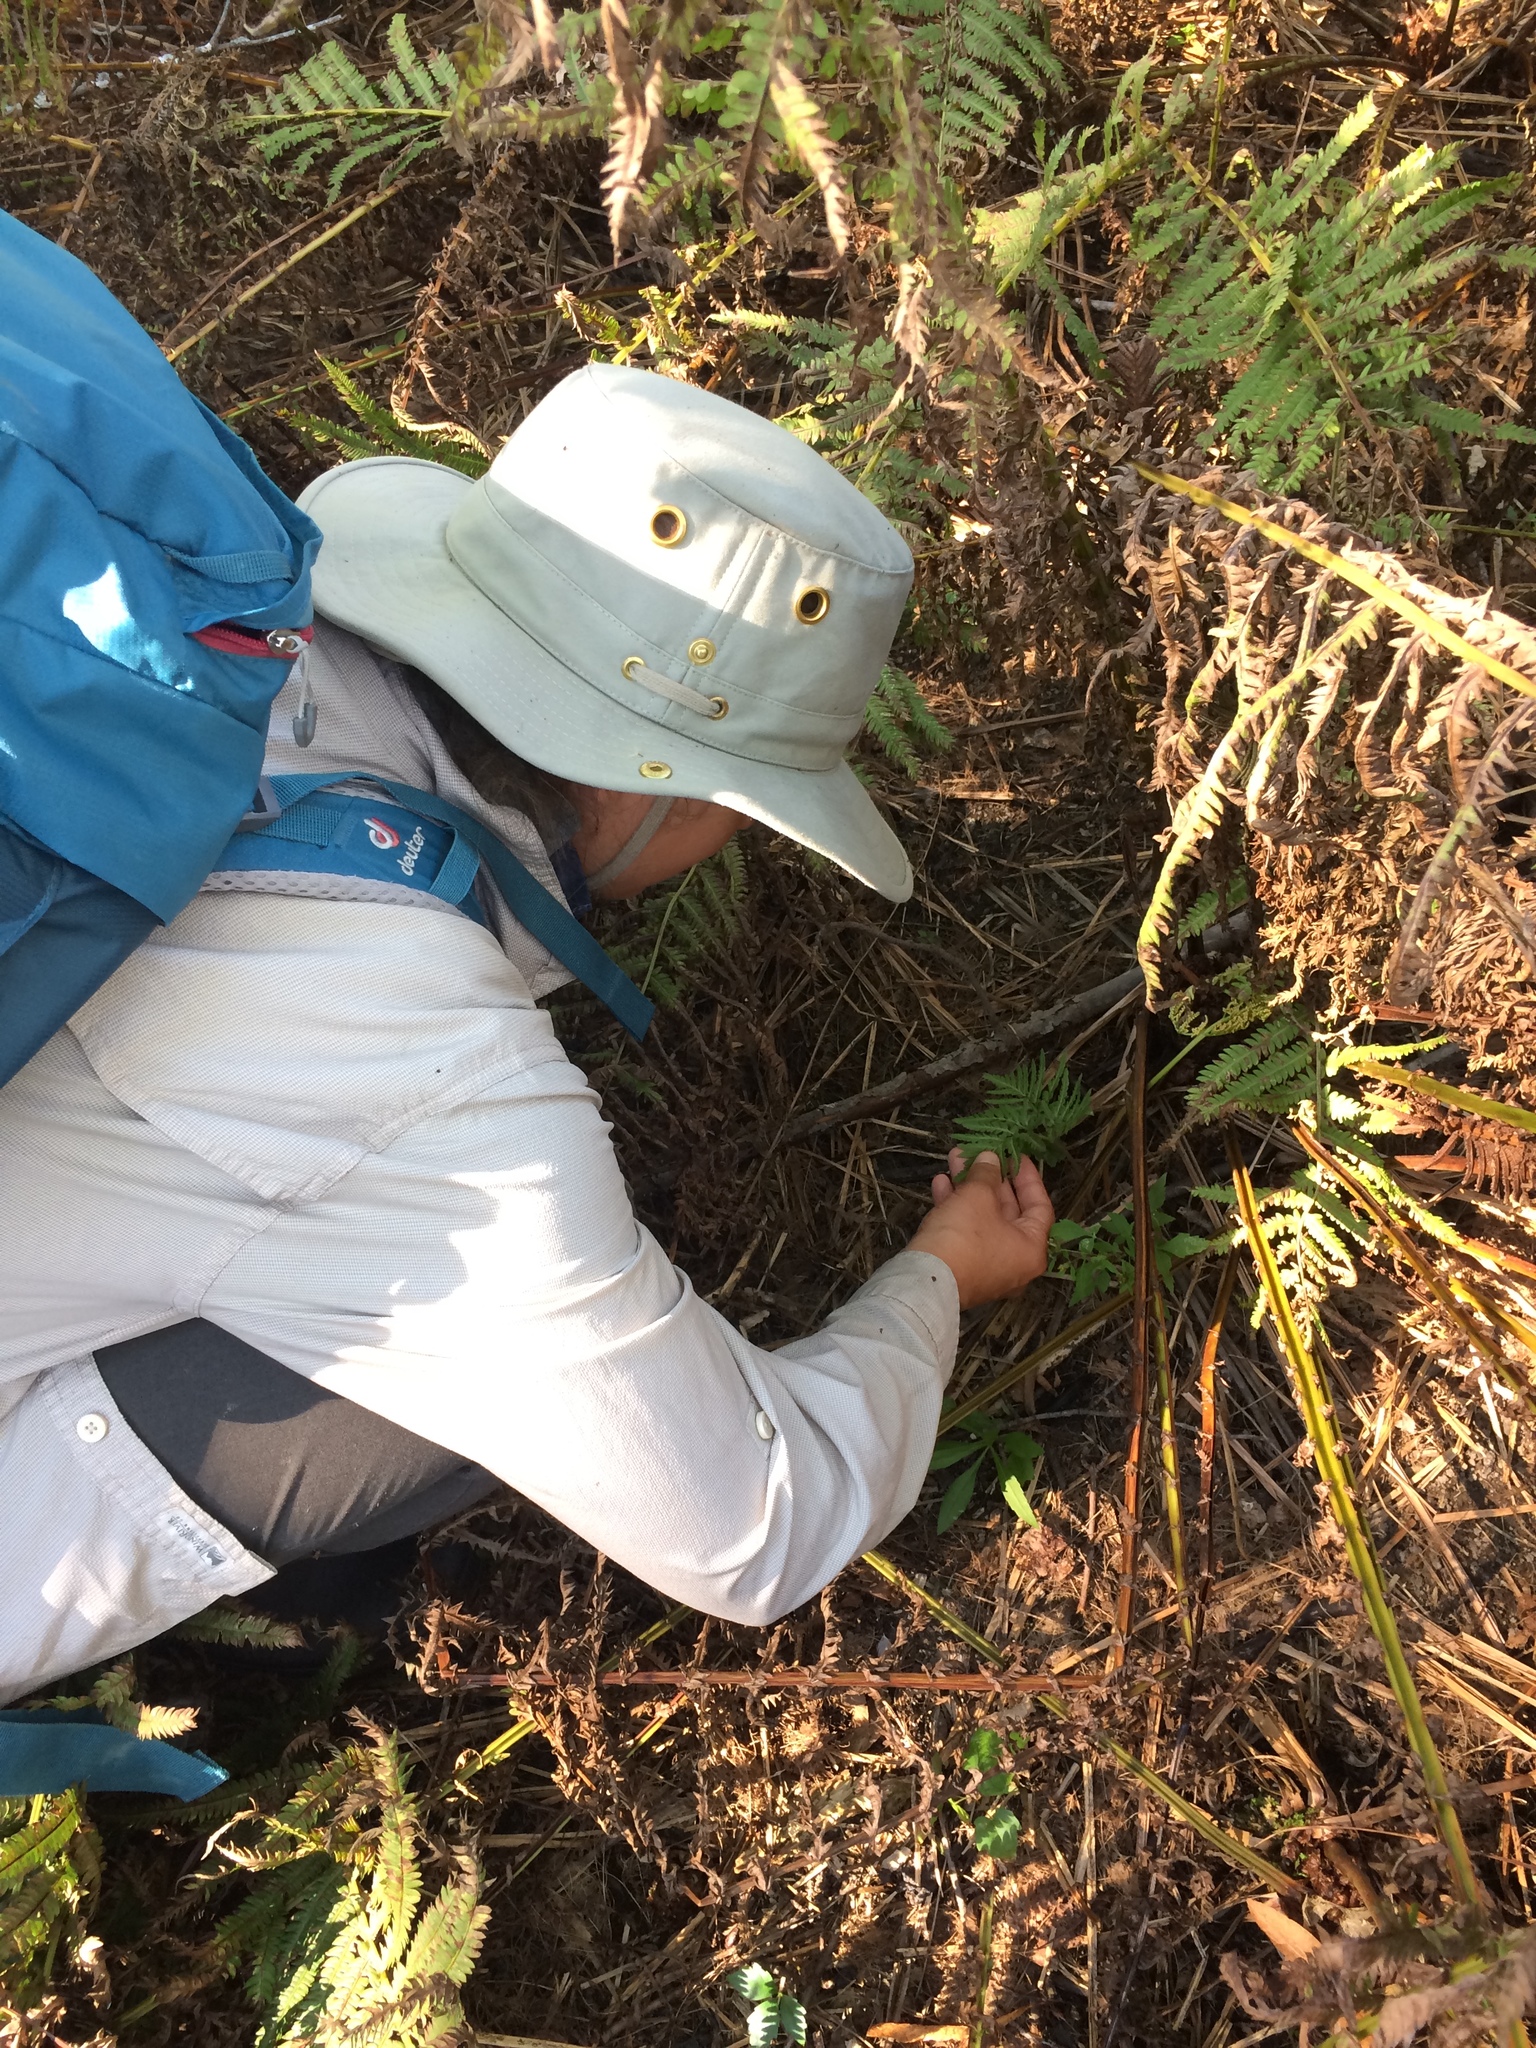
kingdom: Plantae
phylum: Tracheophyta
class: Polypodiopsida
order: Ophioglossales
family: Ophioglossaceae
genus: Sceptridium
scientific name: Sceptridium dissectum
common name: Cut-leaved grapefern
